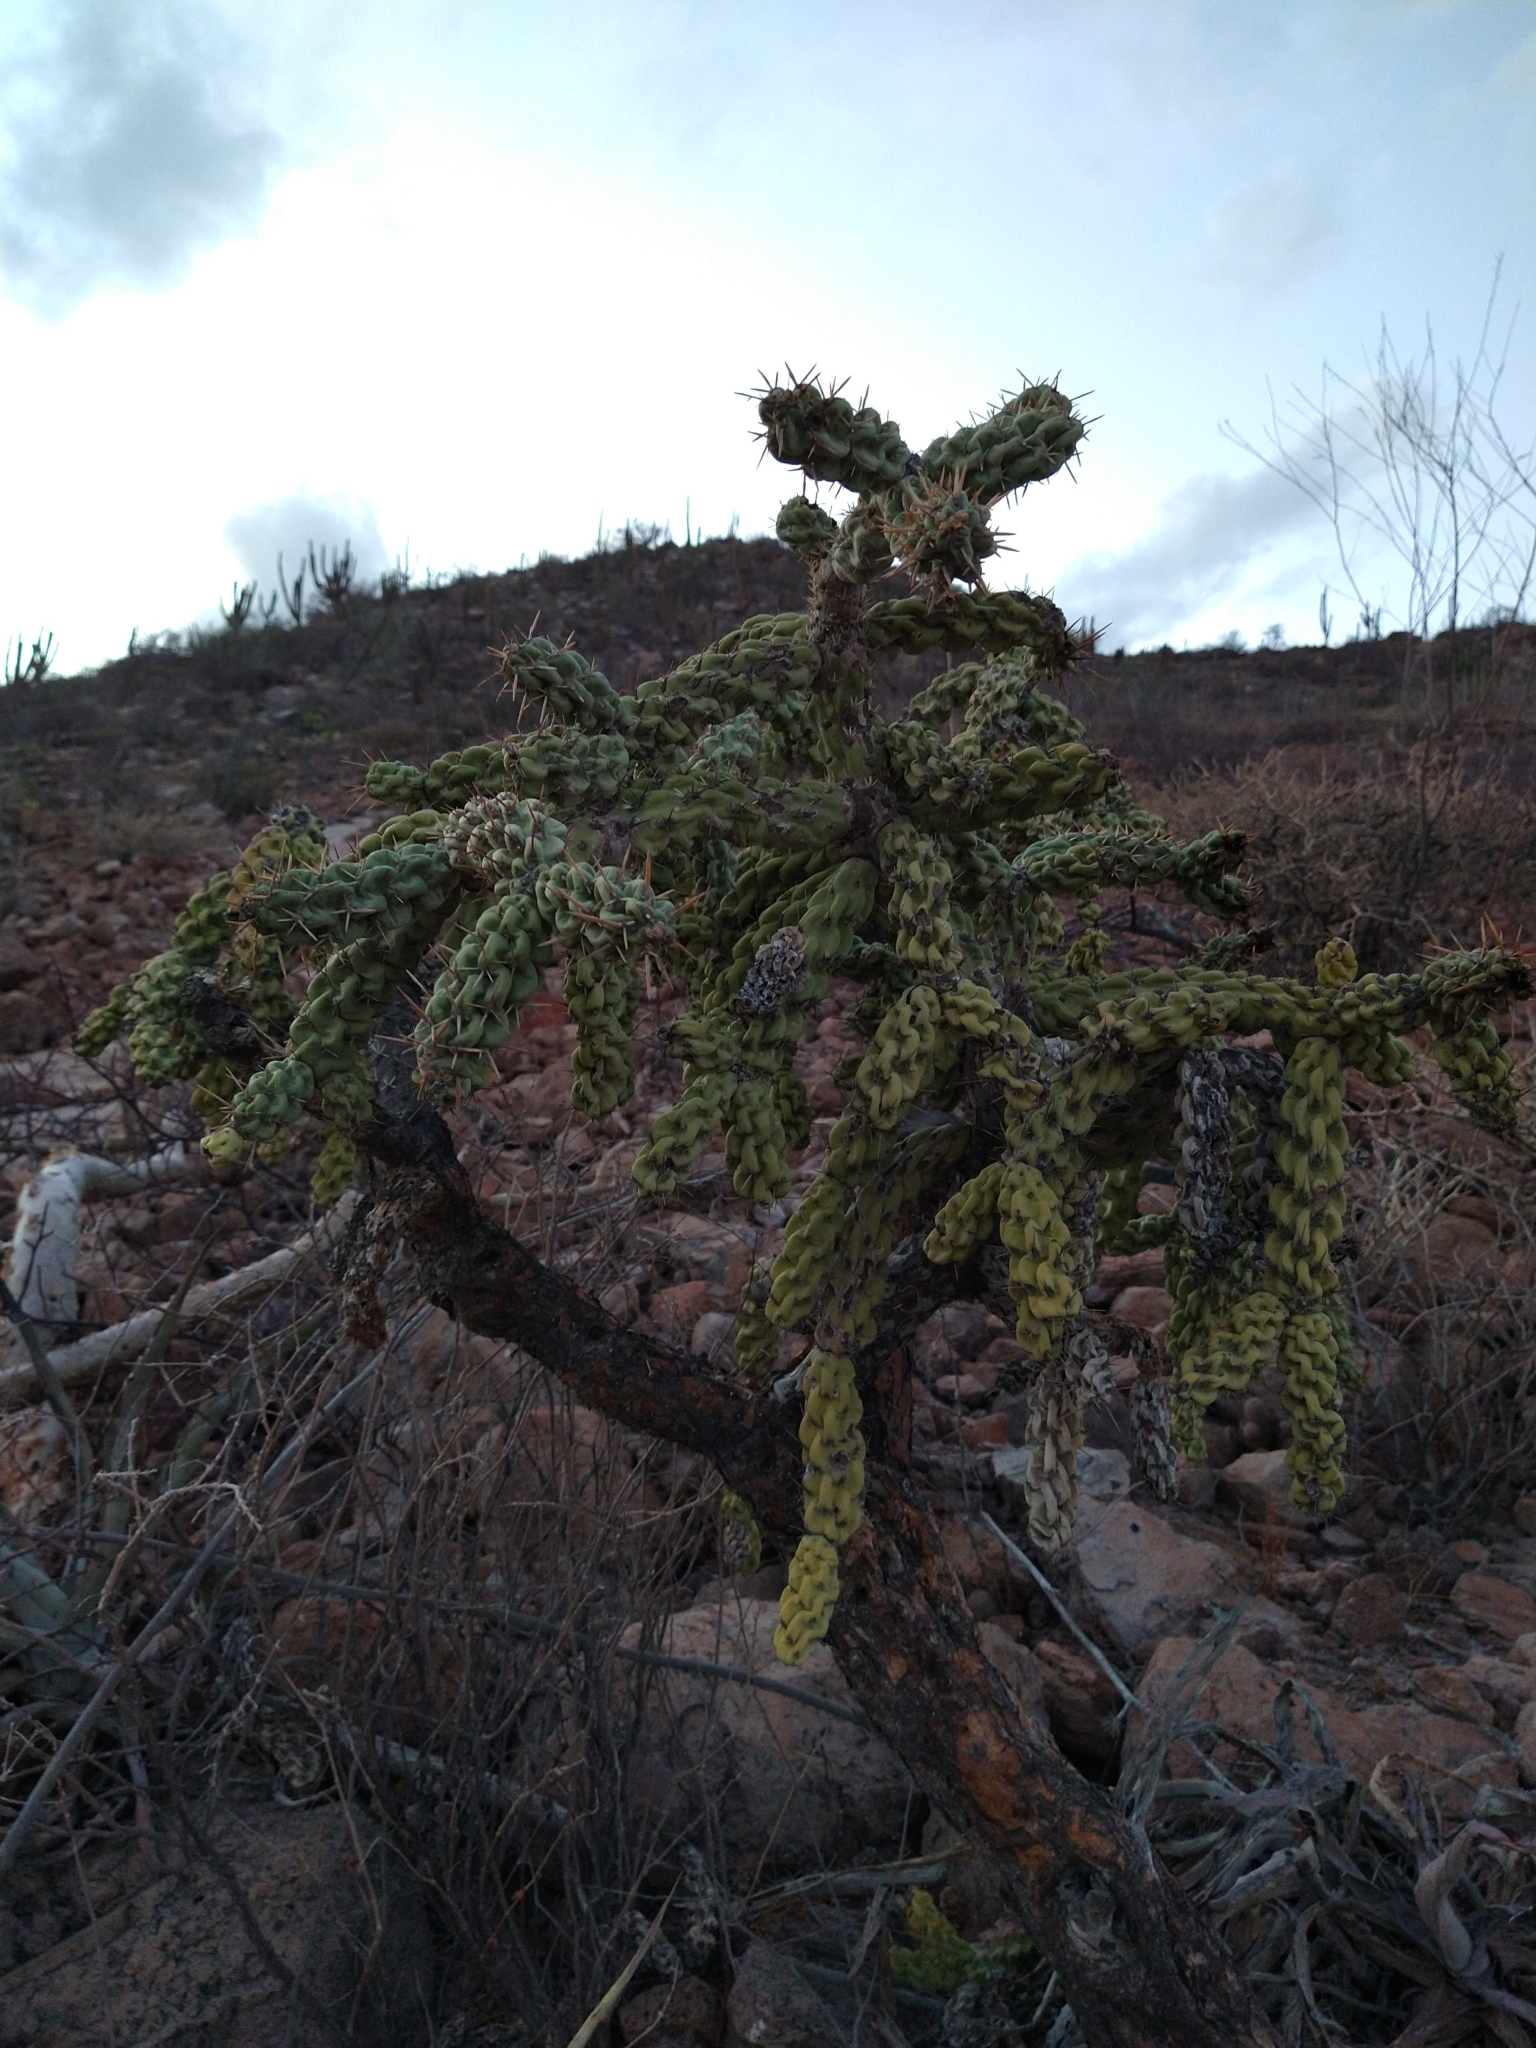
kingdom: Plantae
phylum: Tracheophyta
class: Magnoliopsida
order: Caryophyllales
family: Cactaceae
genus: Cylindropuntia
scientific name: Cylindropuntia cholla
